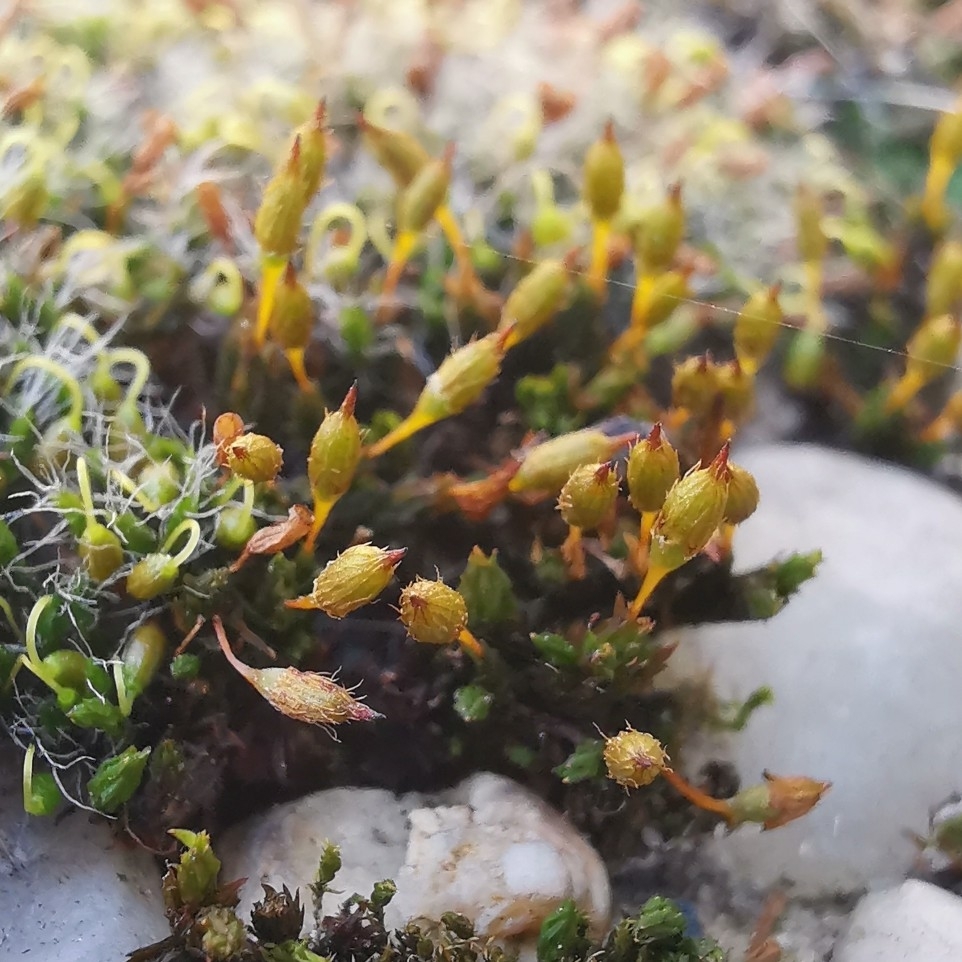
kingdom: Plantae
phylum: Bryophyta
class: Bryopsida
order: Orthotrichales
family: Orthotrichaceae
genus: Orthotrichum
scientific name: Orthotrichum anomalum
